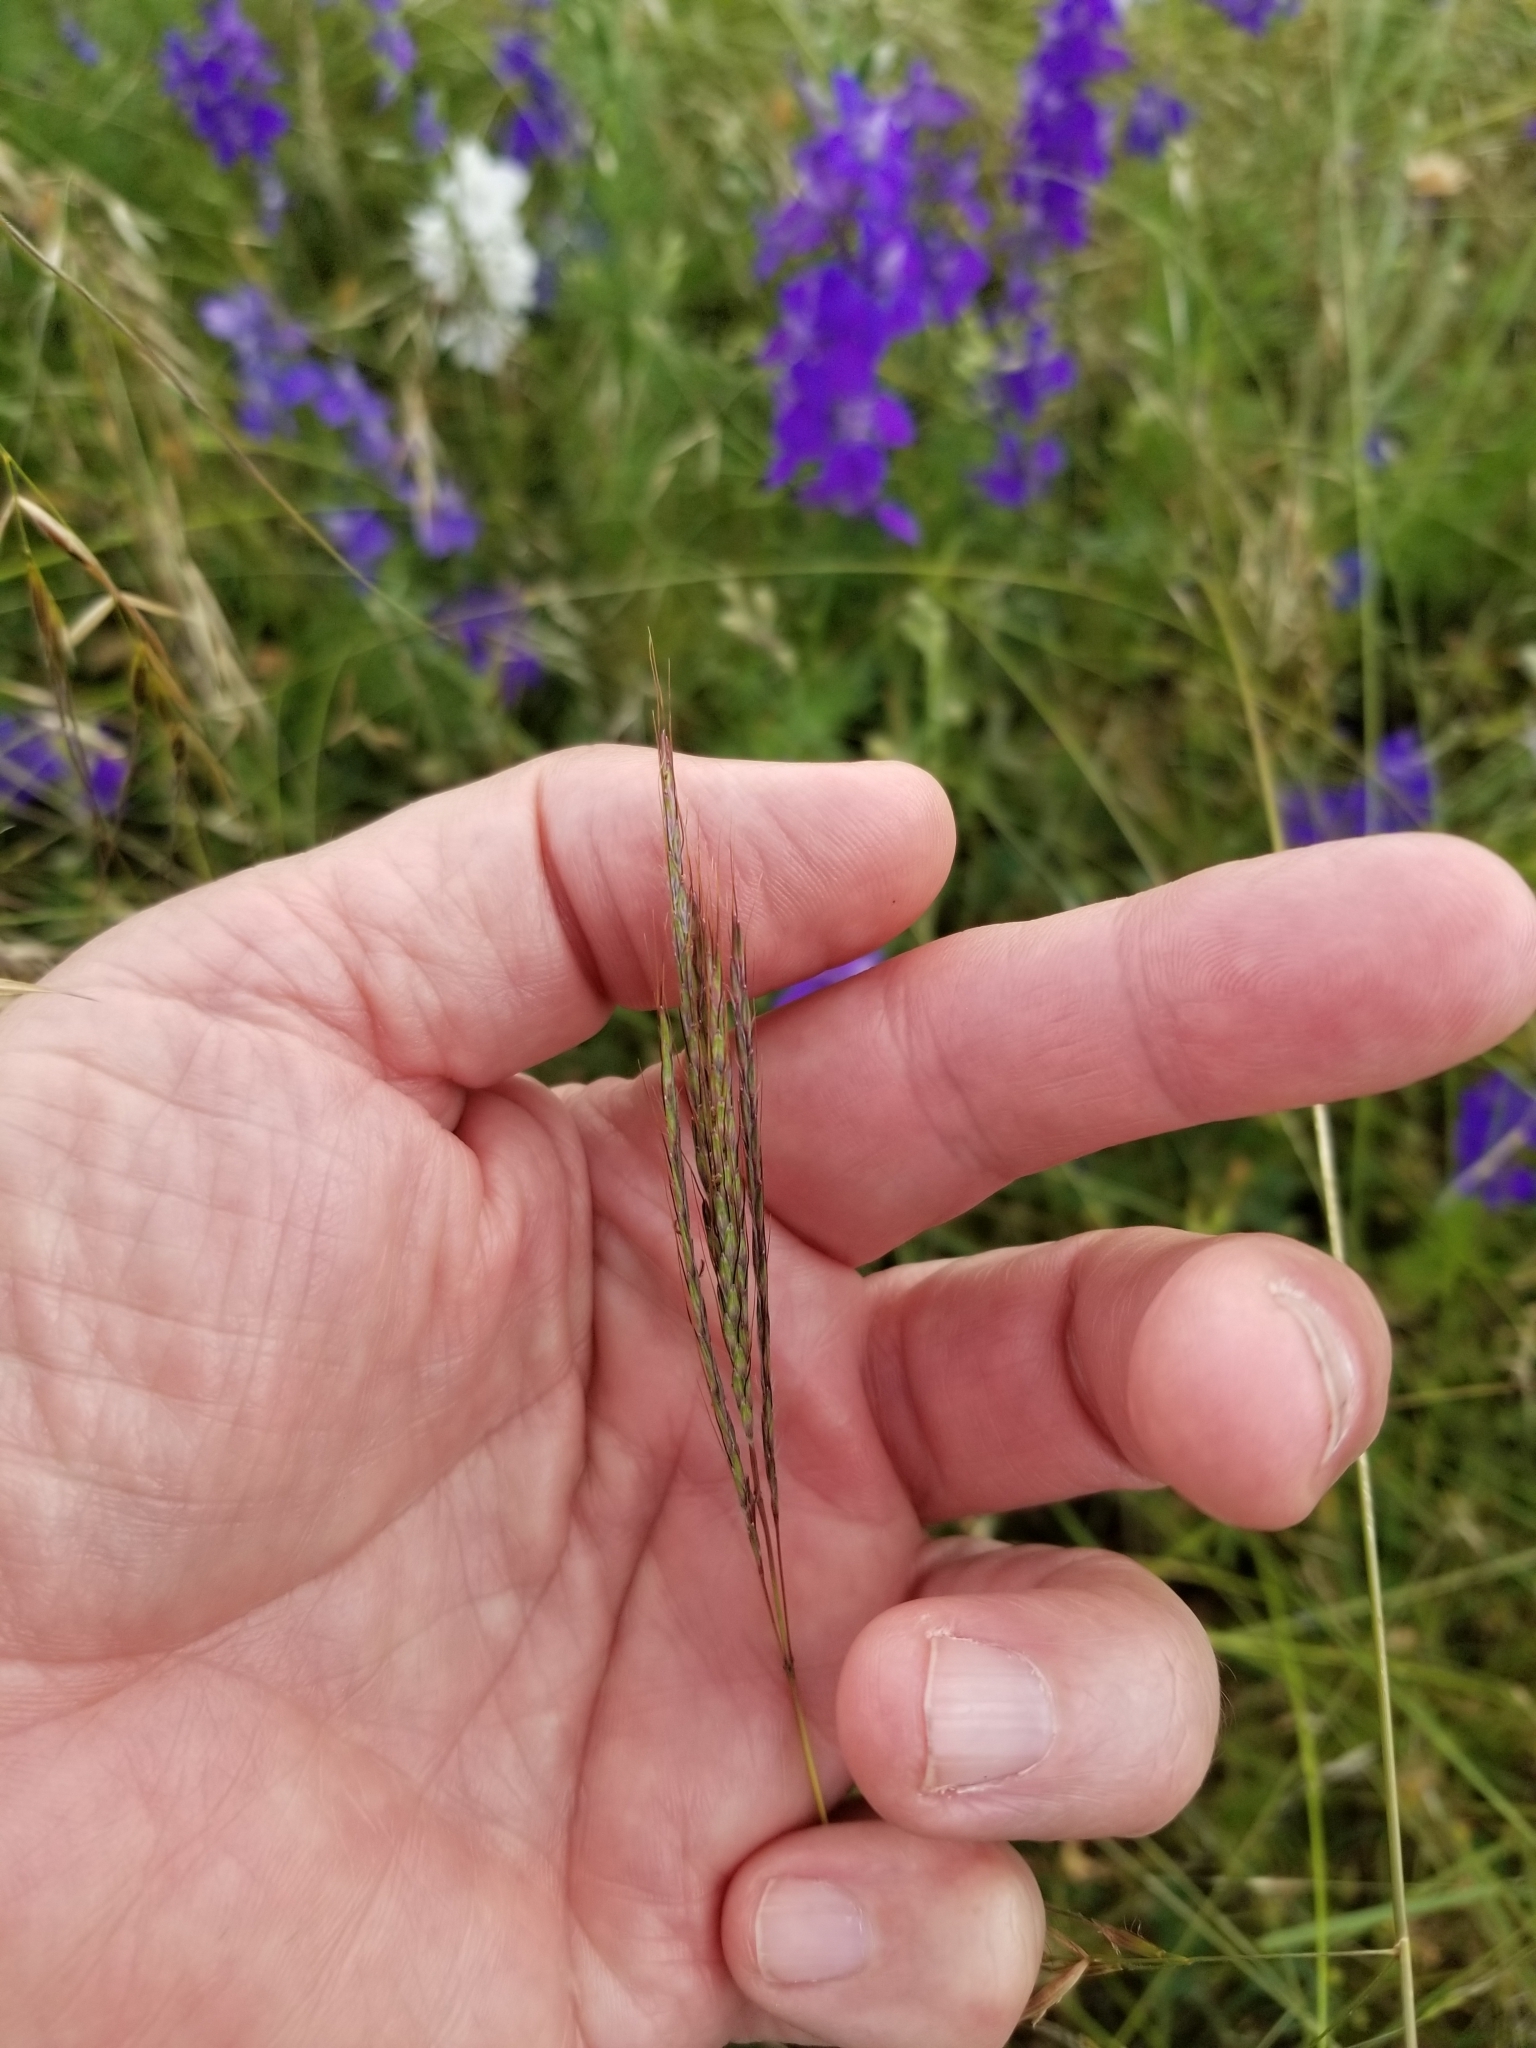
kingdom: Plantae
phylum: Tracheophyta
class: Liliopsida
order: Poales
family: Poaceae
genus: Bothriochloa
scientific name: Bothriochloa ischaemum
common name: Yellow bluestem
